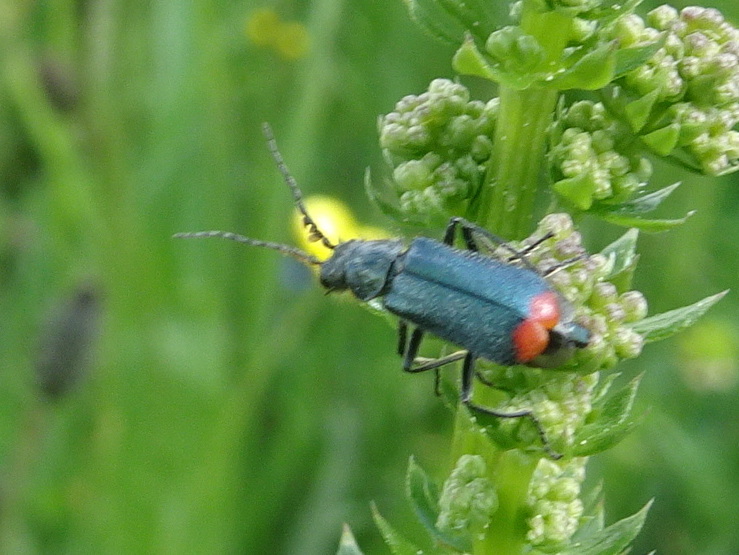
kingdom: Animalia
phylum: Arthropoda
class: Insecta
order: Coleoptera
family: Melyridae
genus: Malachius
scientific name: Malachius bipustulatus
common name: Malachite beetle
